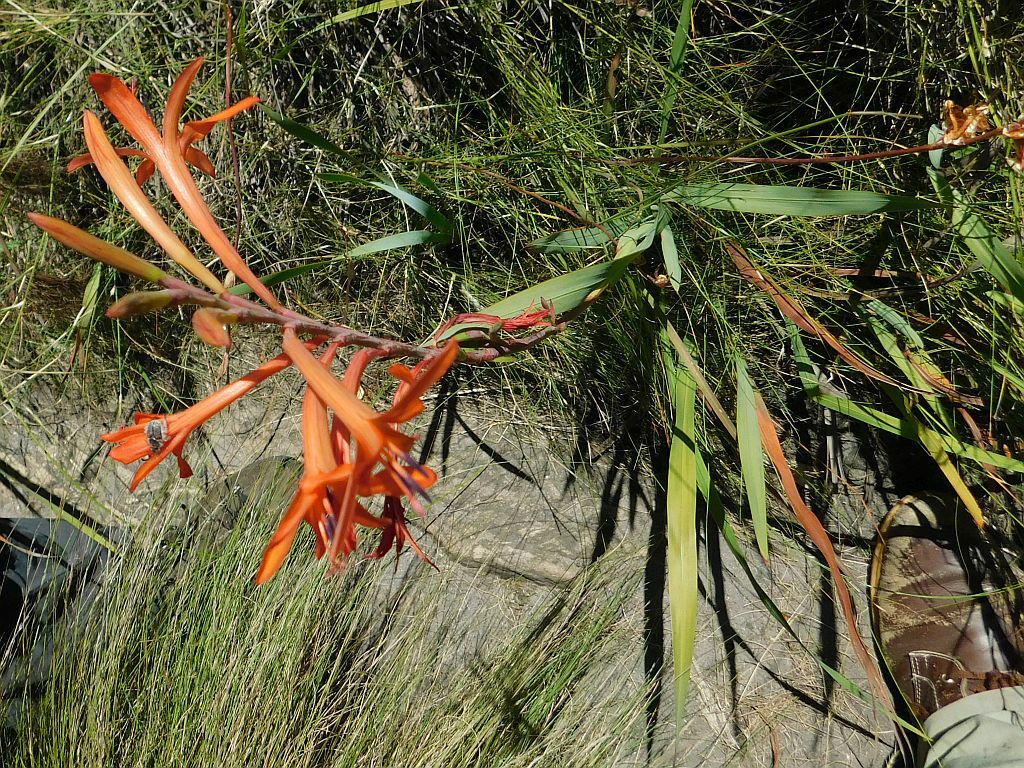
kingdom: Plantae
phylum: Tracheophyta
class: Liliopsida
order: Asparagales
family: Iridaceae
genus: Watsonia
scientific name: Watsonia angusta
